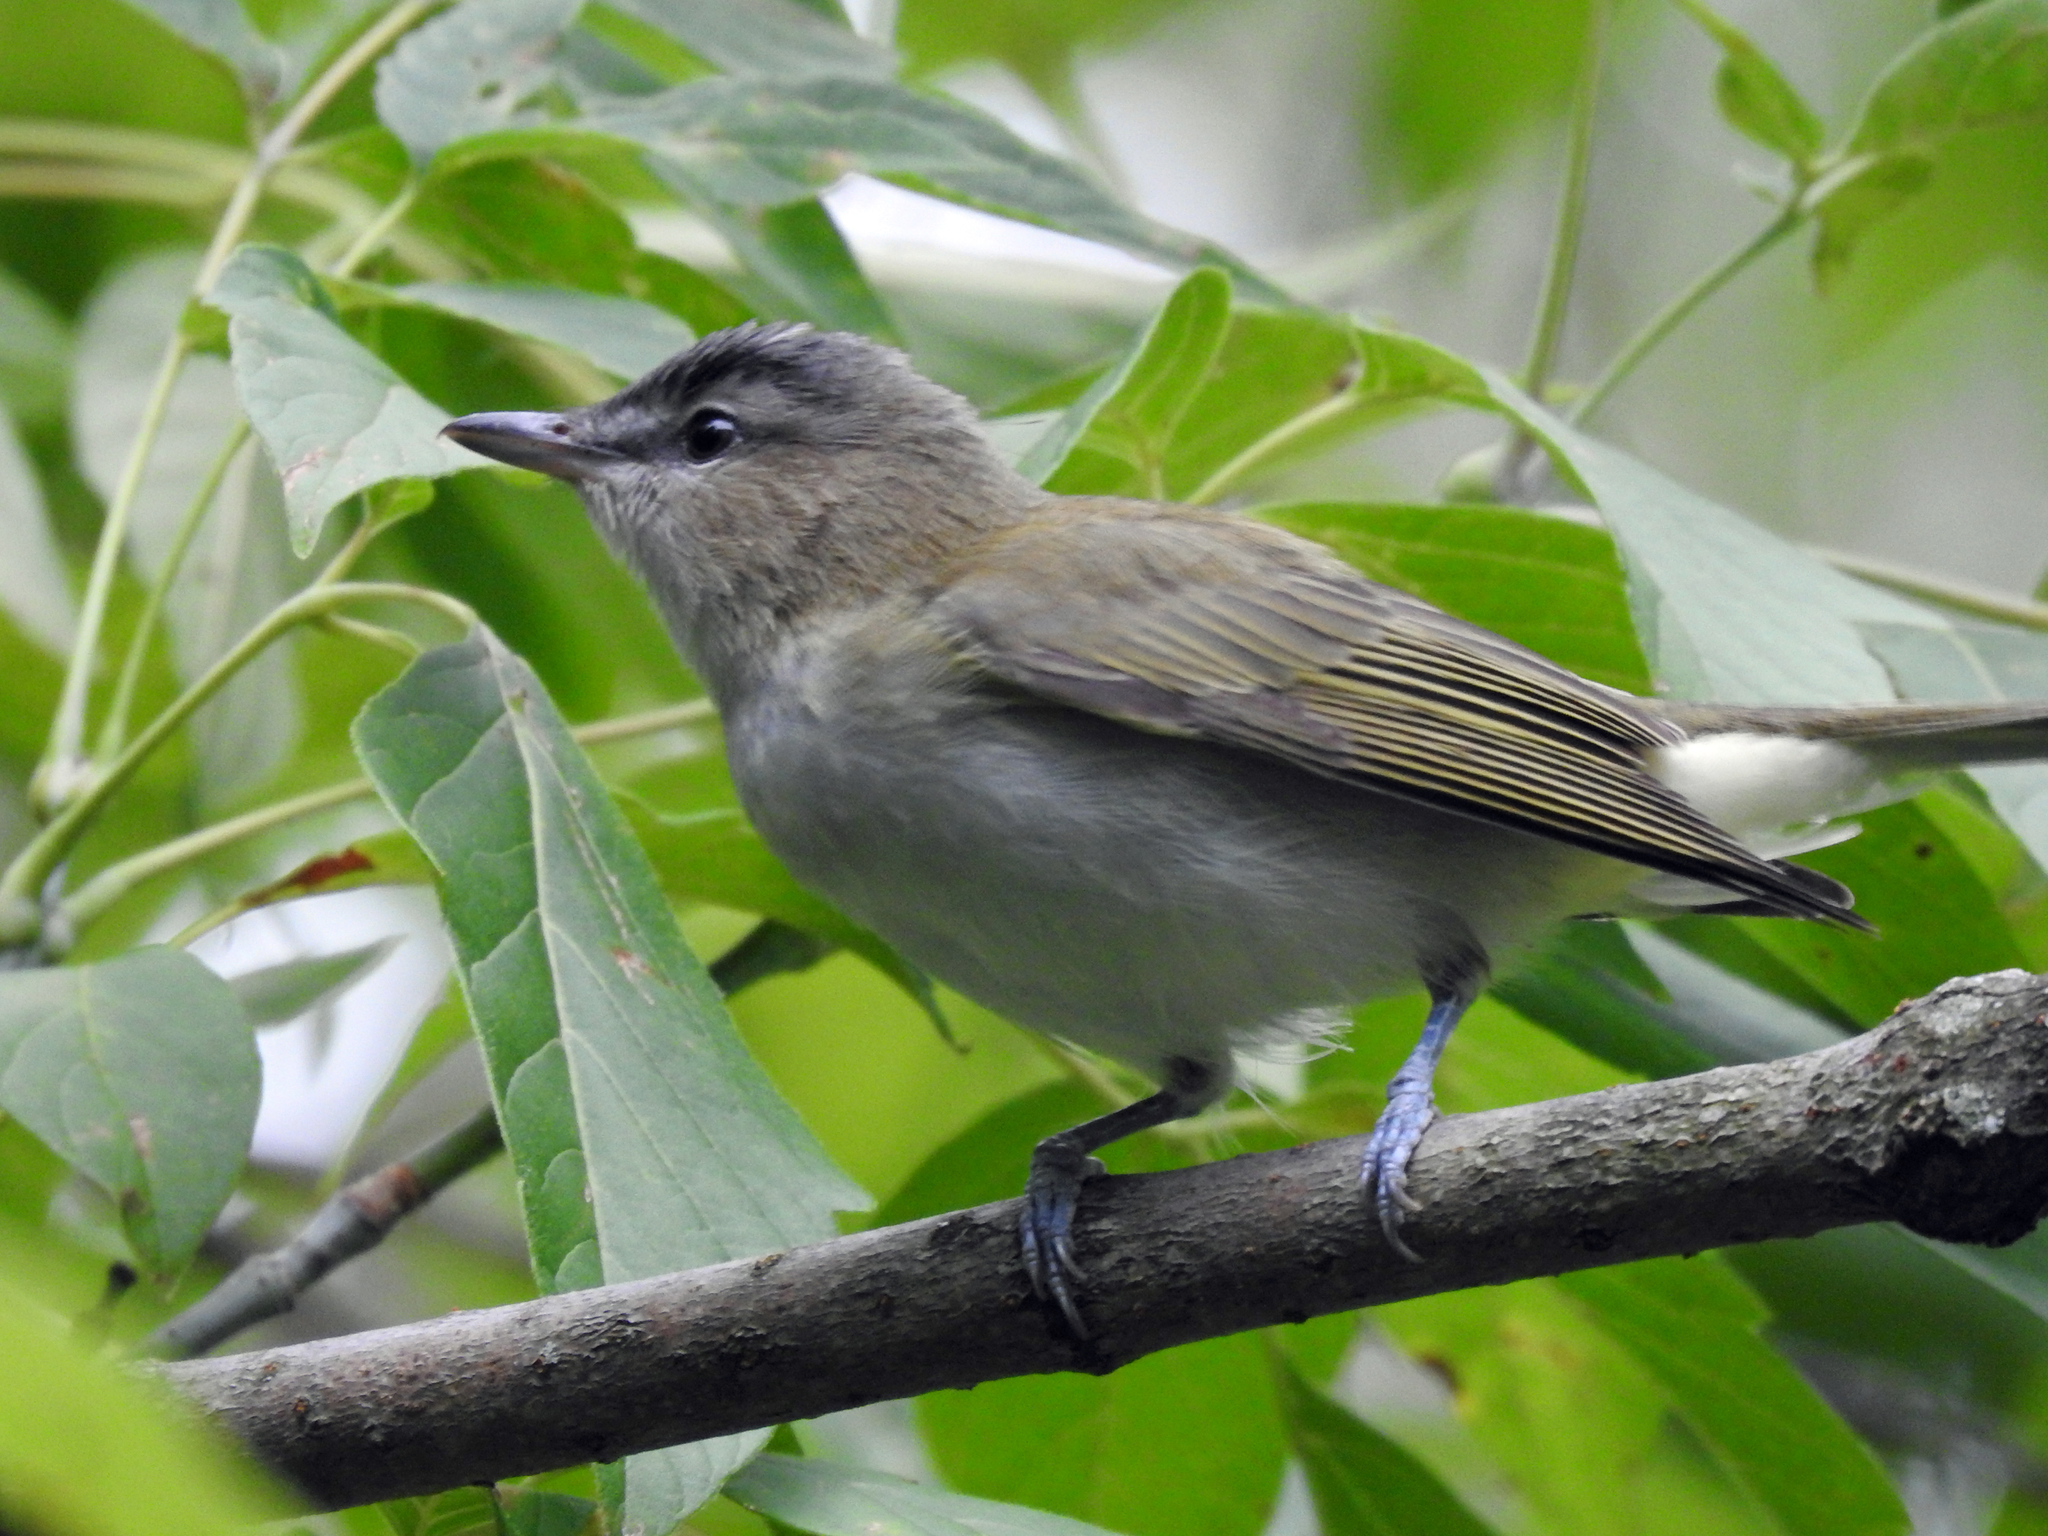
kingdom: Animalia
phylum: Chordata
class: Aves
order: Passeriformes
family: Vireonidae
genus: Vireo
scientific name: Vireo olivaceus
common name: Red-eyed vireo
